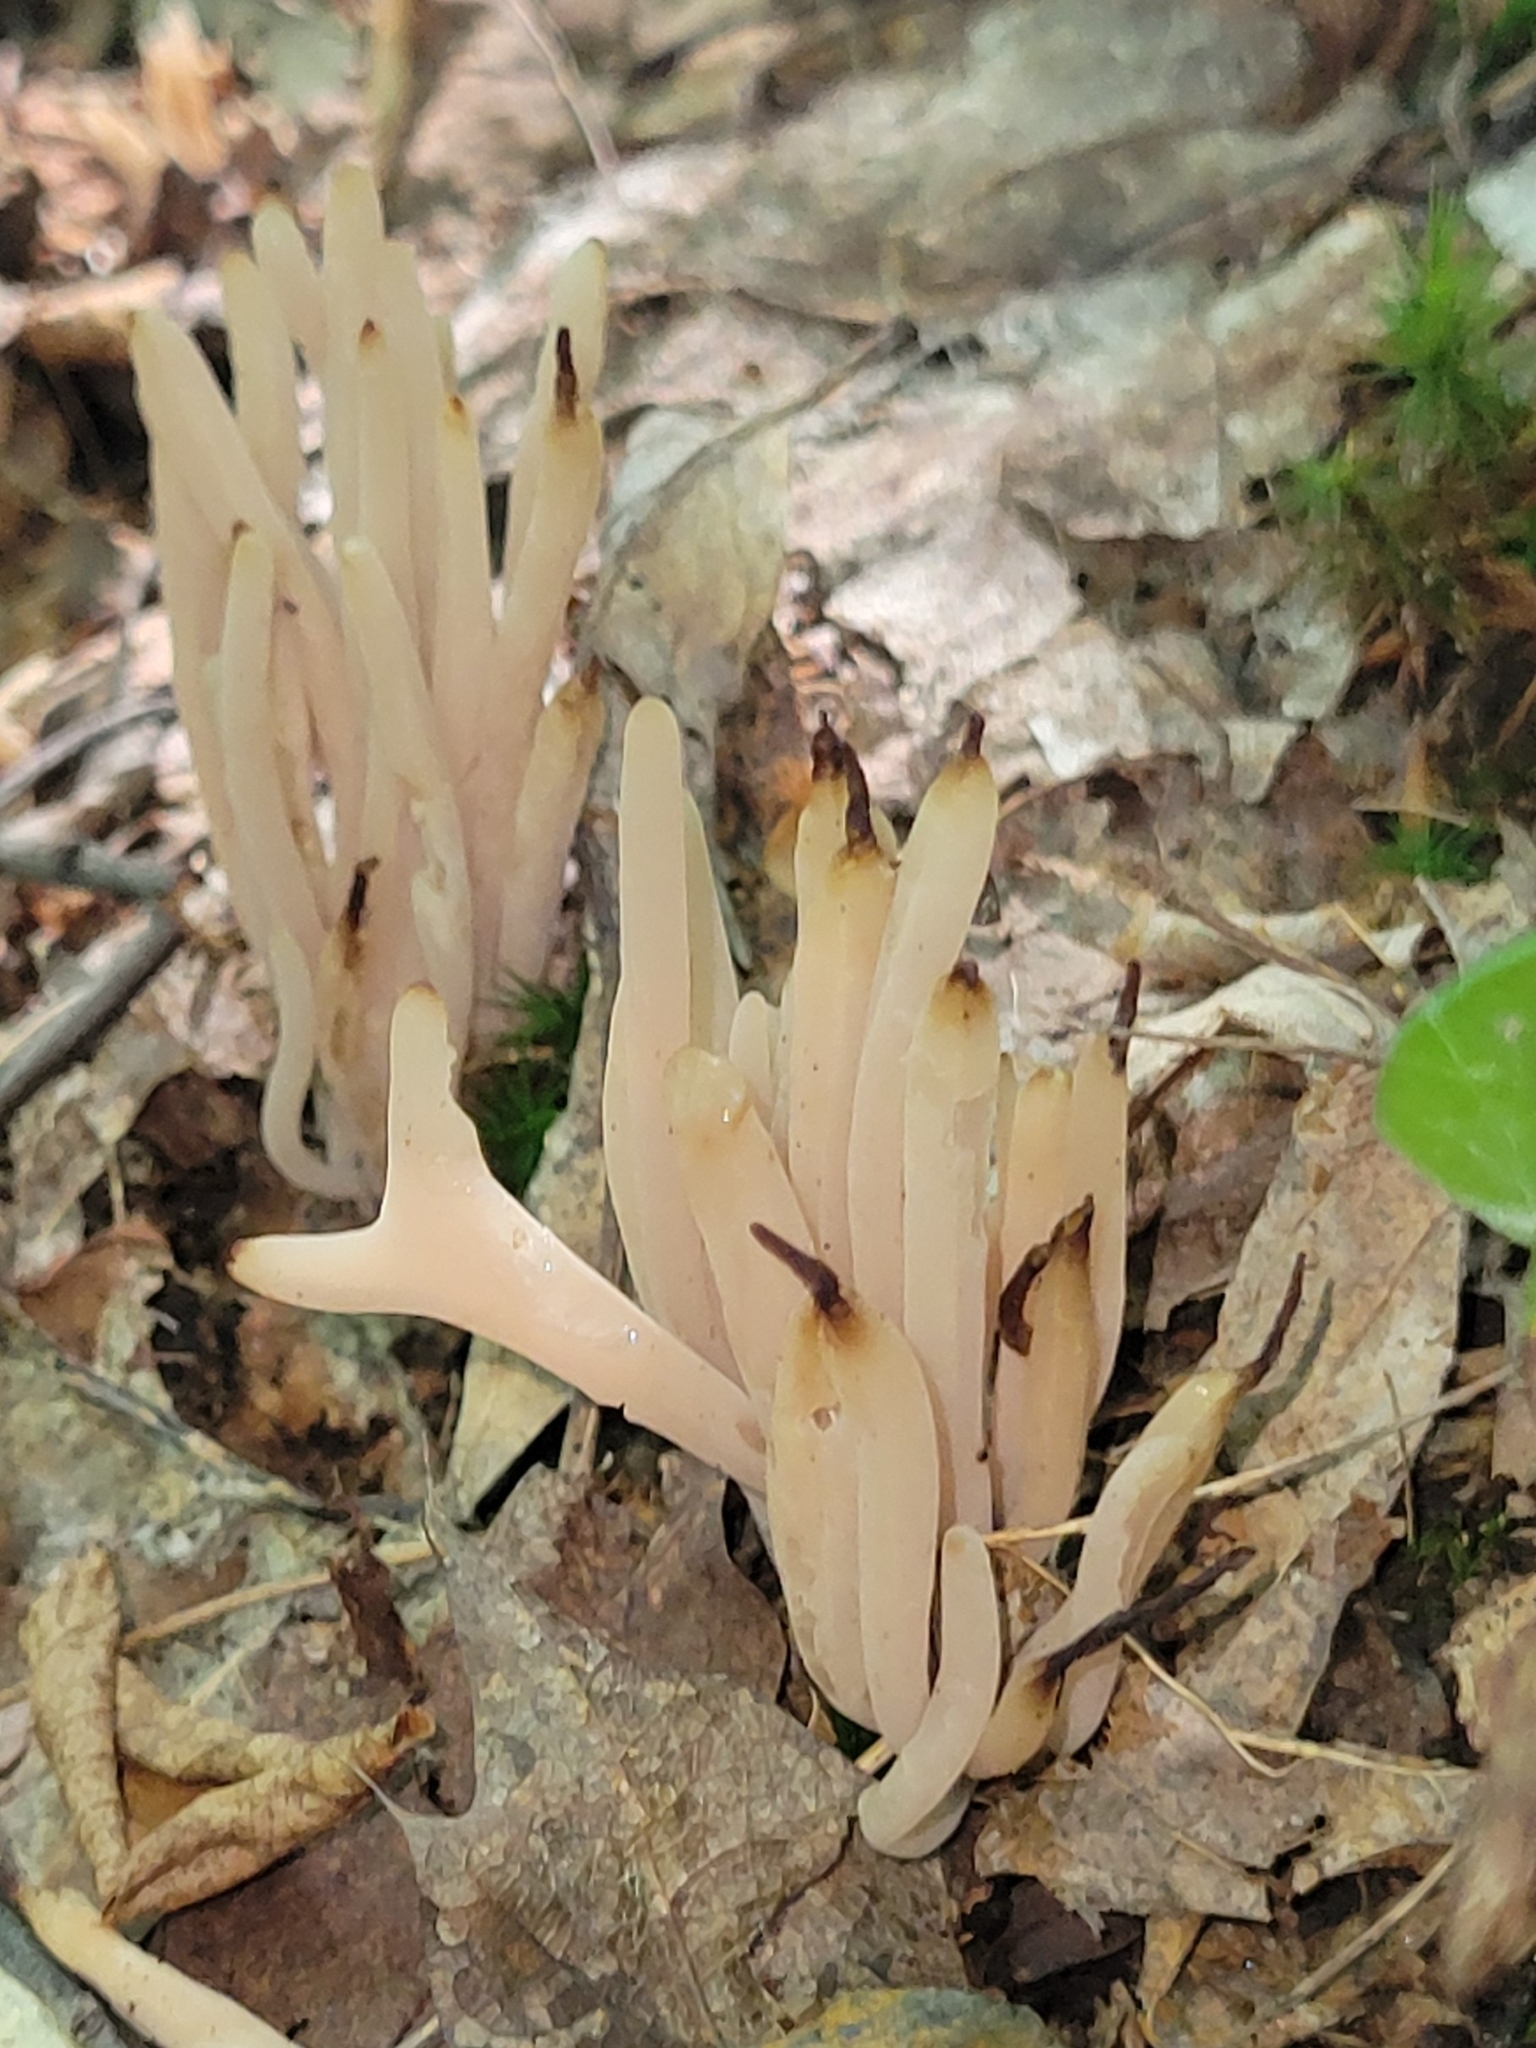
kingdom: Fungi
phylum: Basidiomycota
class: Agaricomycetes
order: Agaricales
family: Clavariaceae
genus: Clavaria
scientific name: Clavaria fumosa
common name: Smoky spindles
